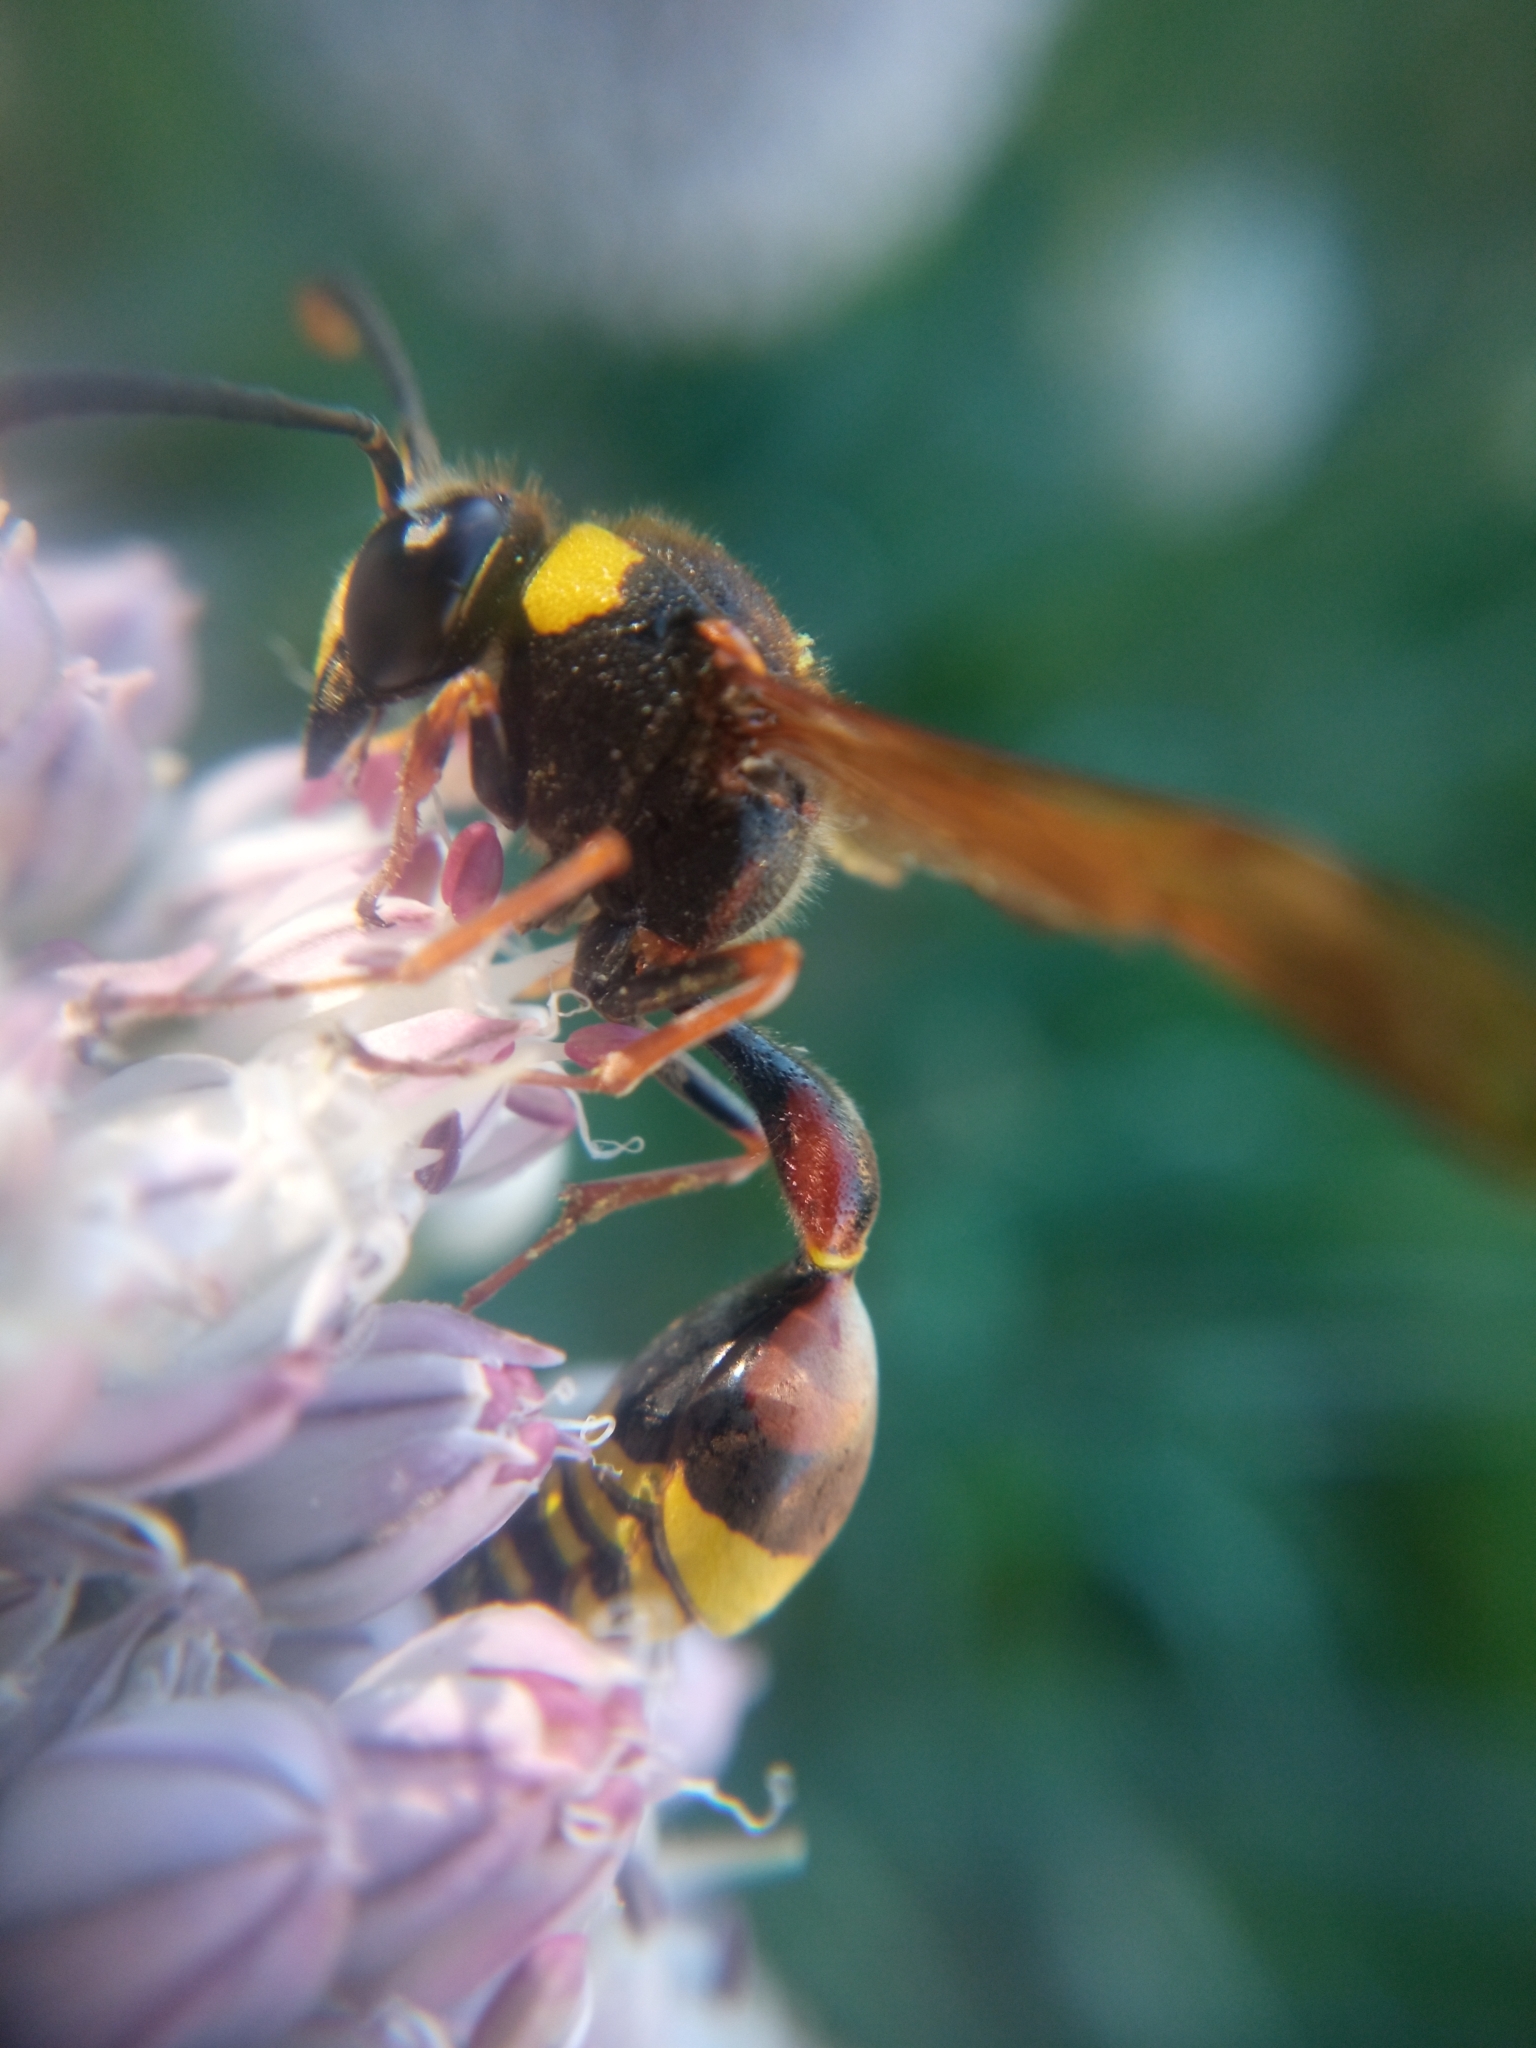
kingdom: Animalia
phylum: Arthropoda
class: Insecta
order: Hymenoptera
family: Eumenidae
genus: Delta
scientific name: Delta unguiculatum
